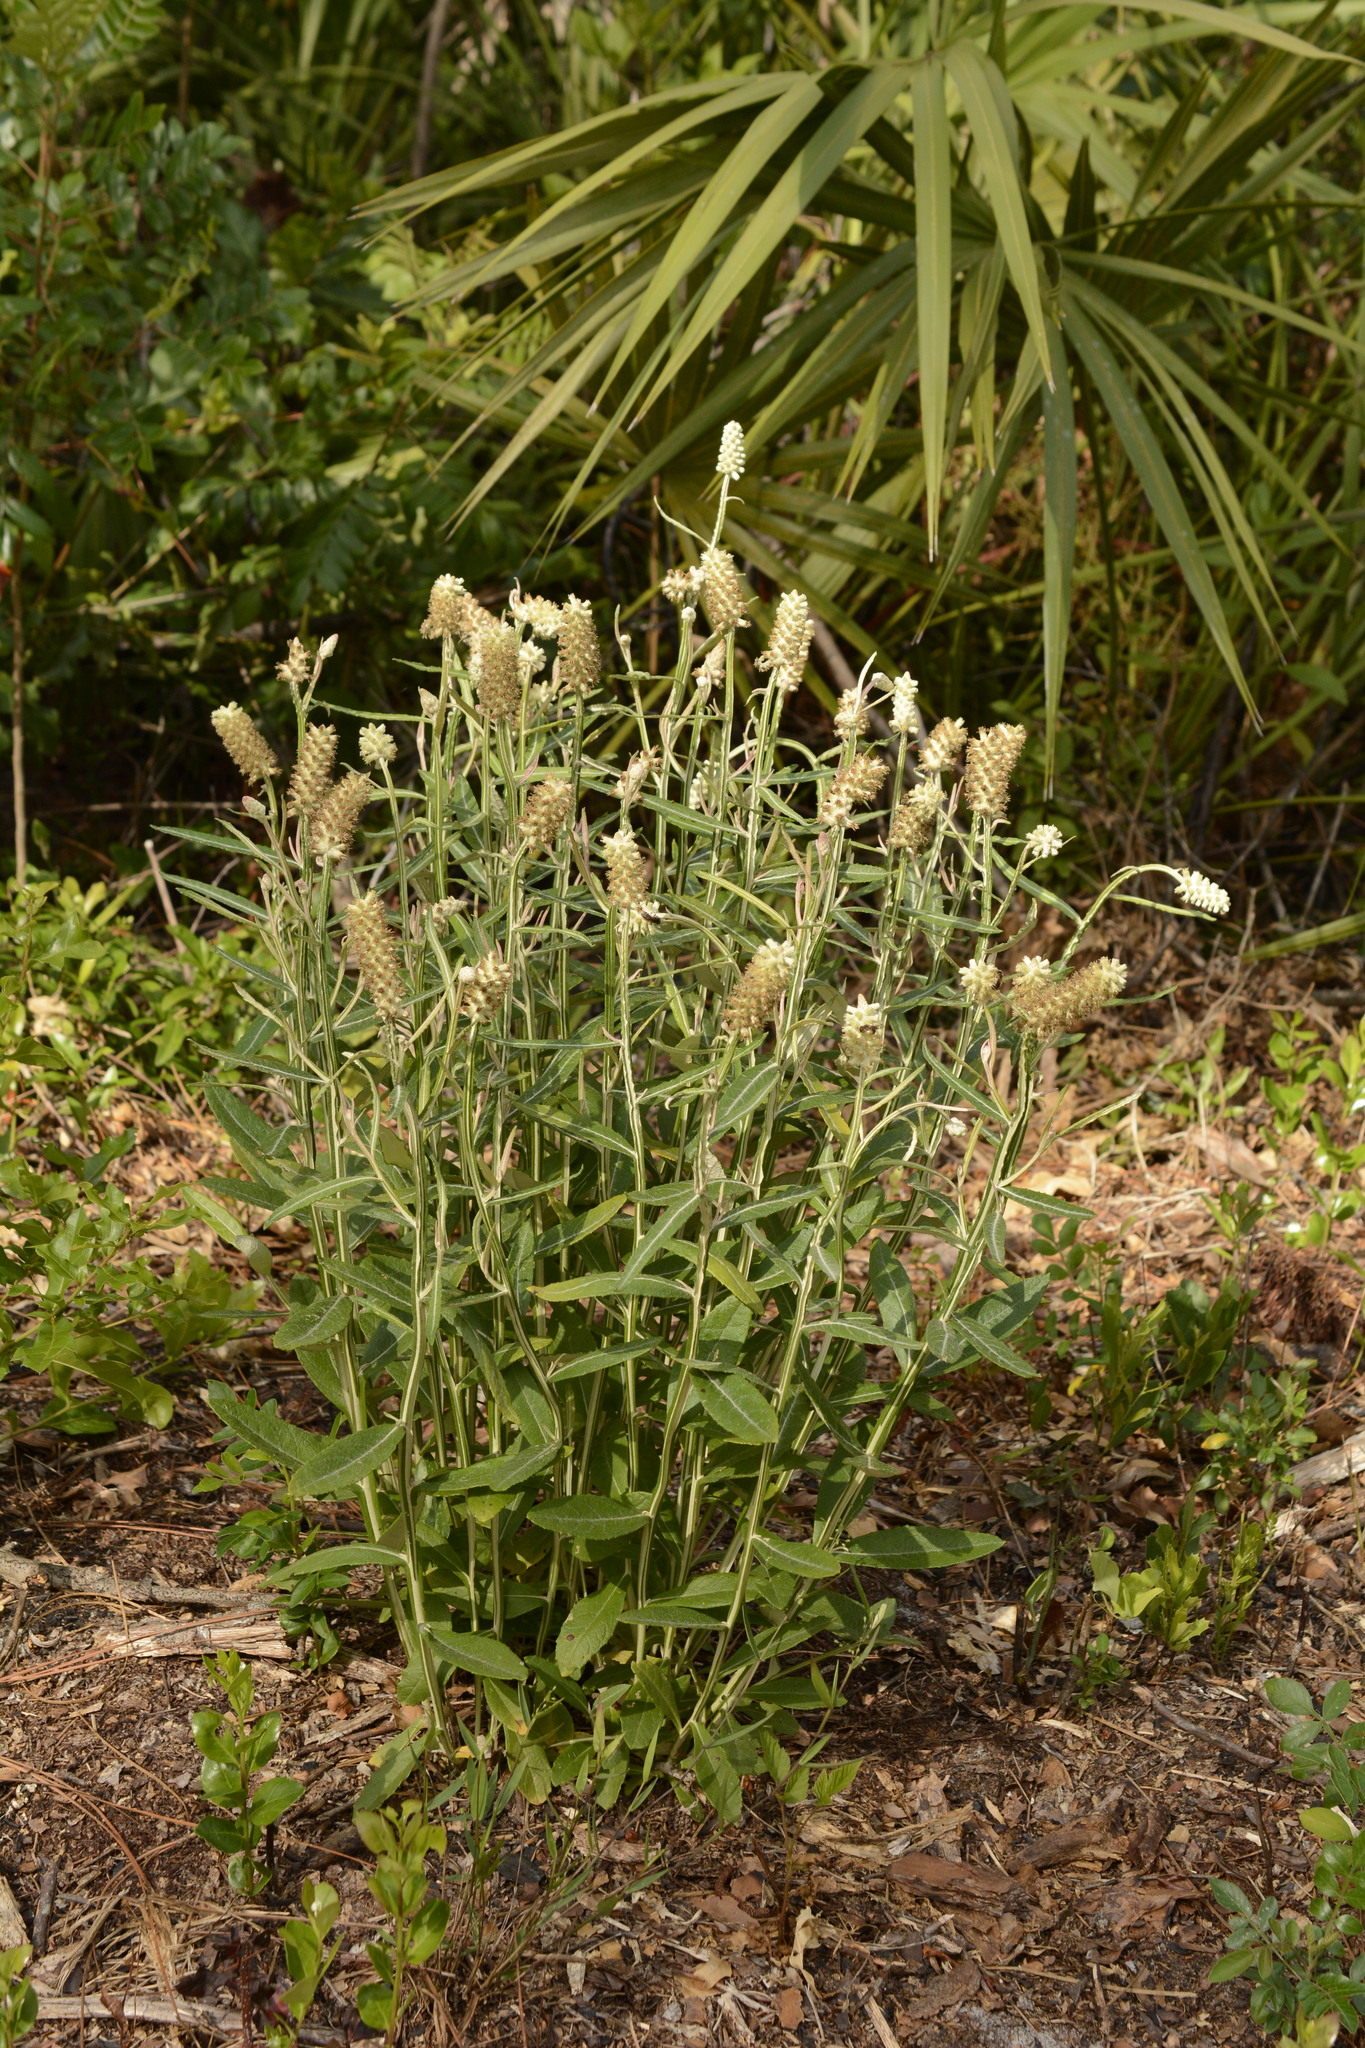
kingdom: Plantae
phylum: Tracheophyta
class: Magnoliopsida
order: Asterales
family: Asteraceae
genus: Pterocaulon
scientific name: Pterocaulon pycnostachyum
